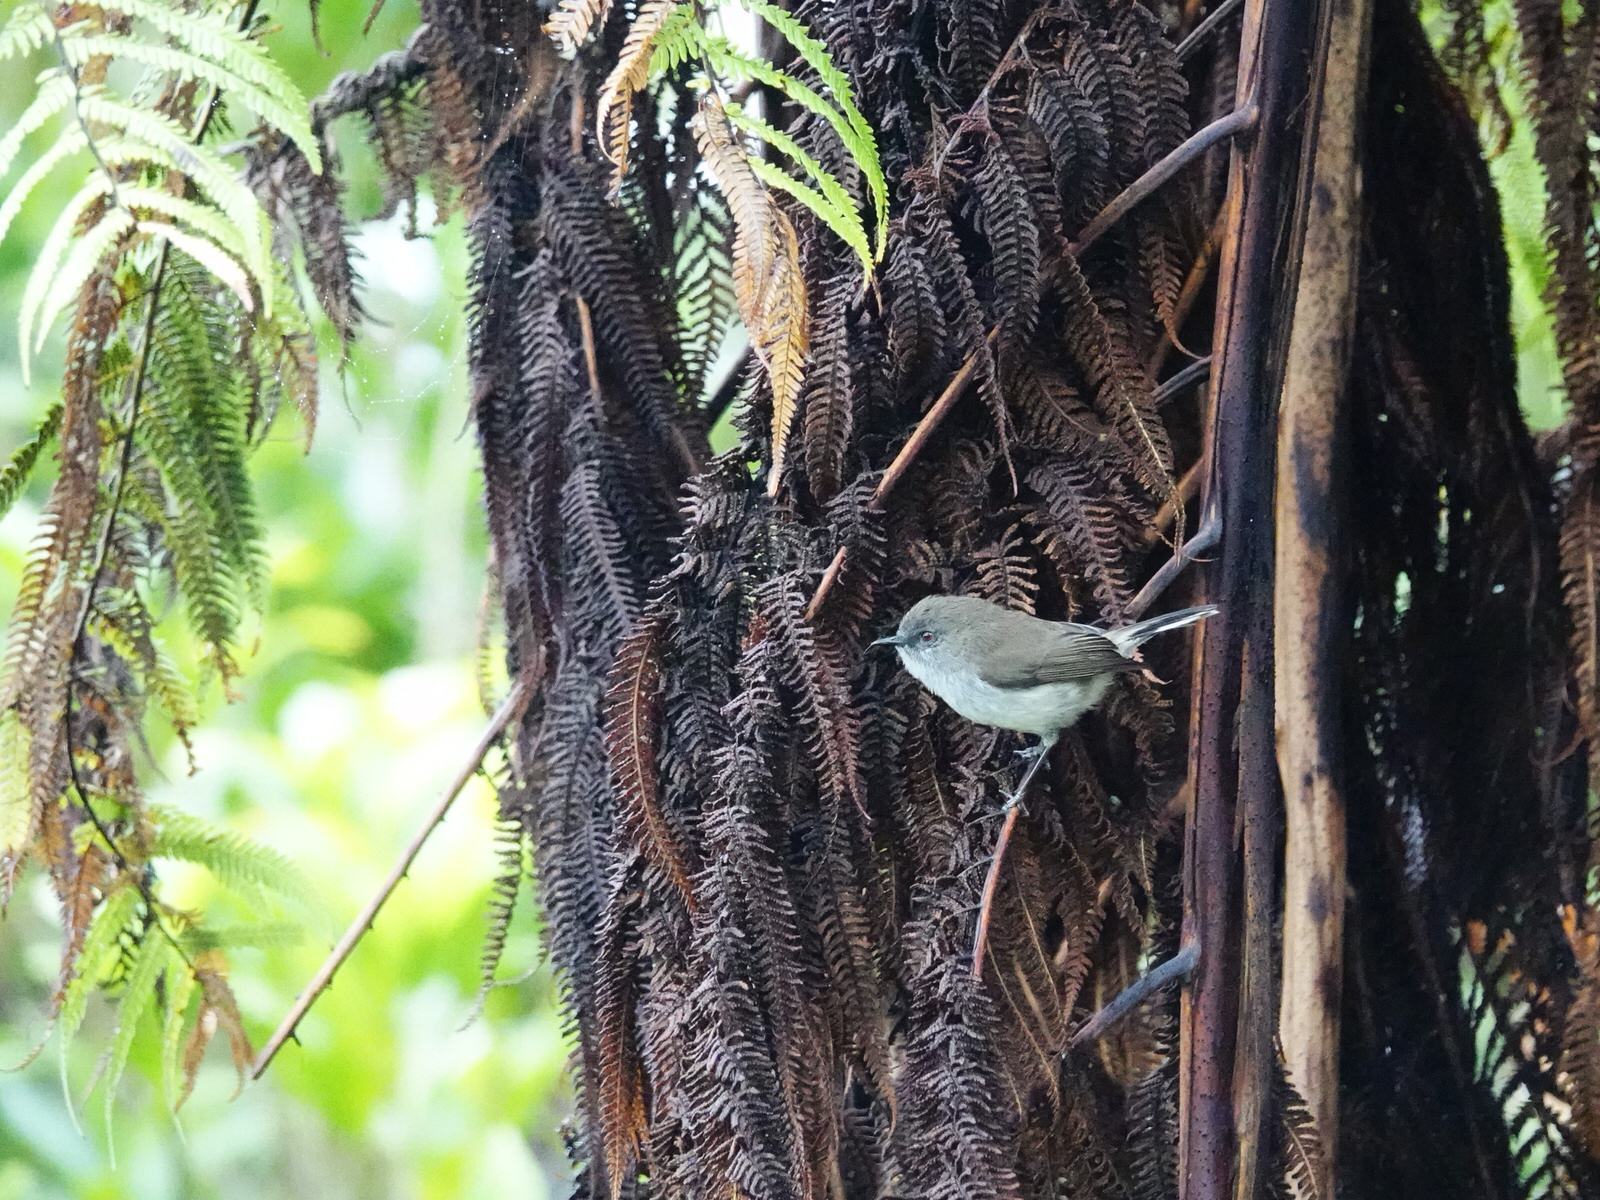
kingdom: Animalia
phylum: Chordata
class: Aves
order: Passeriformes
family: Acanthizidae
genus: Gerygone
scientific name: Gerygone igata
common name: Grey gerygone
